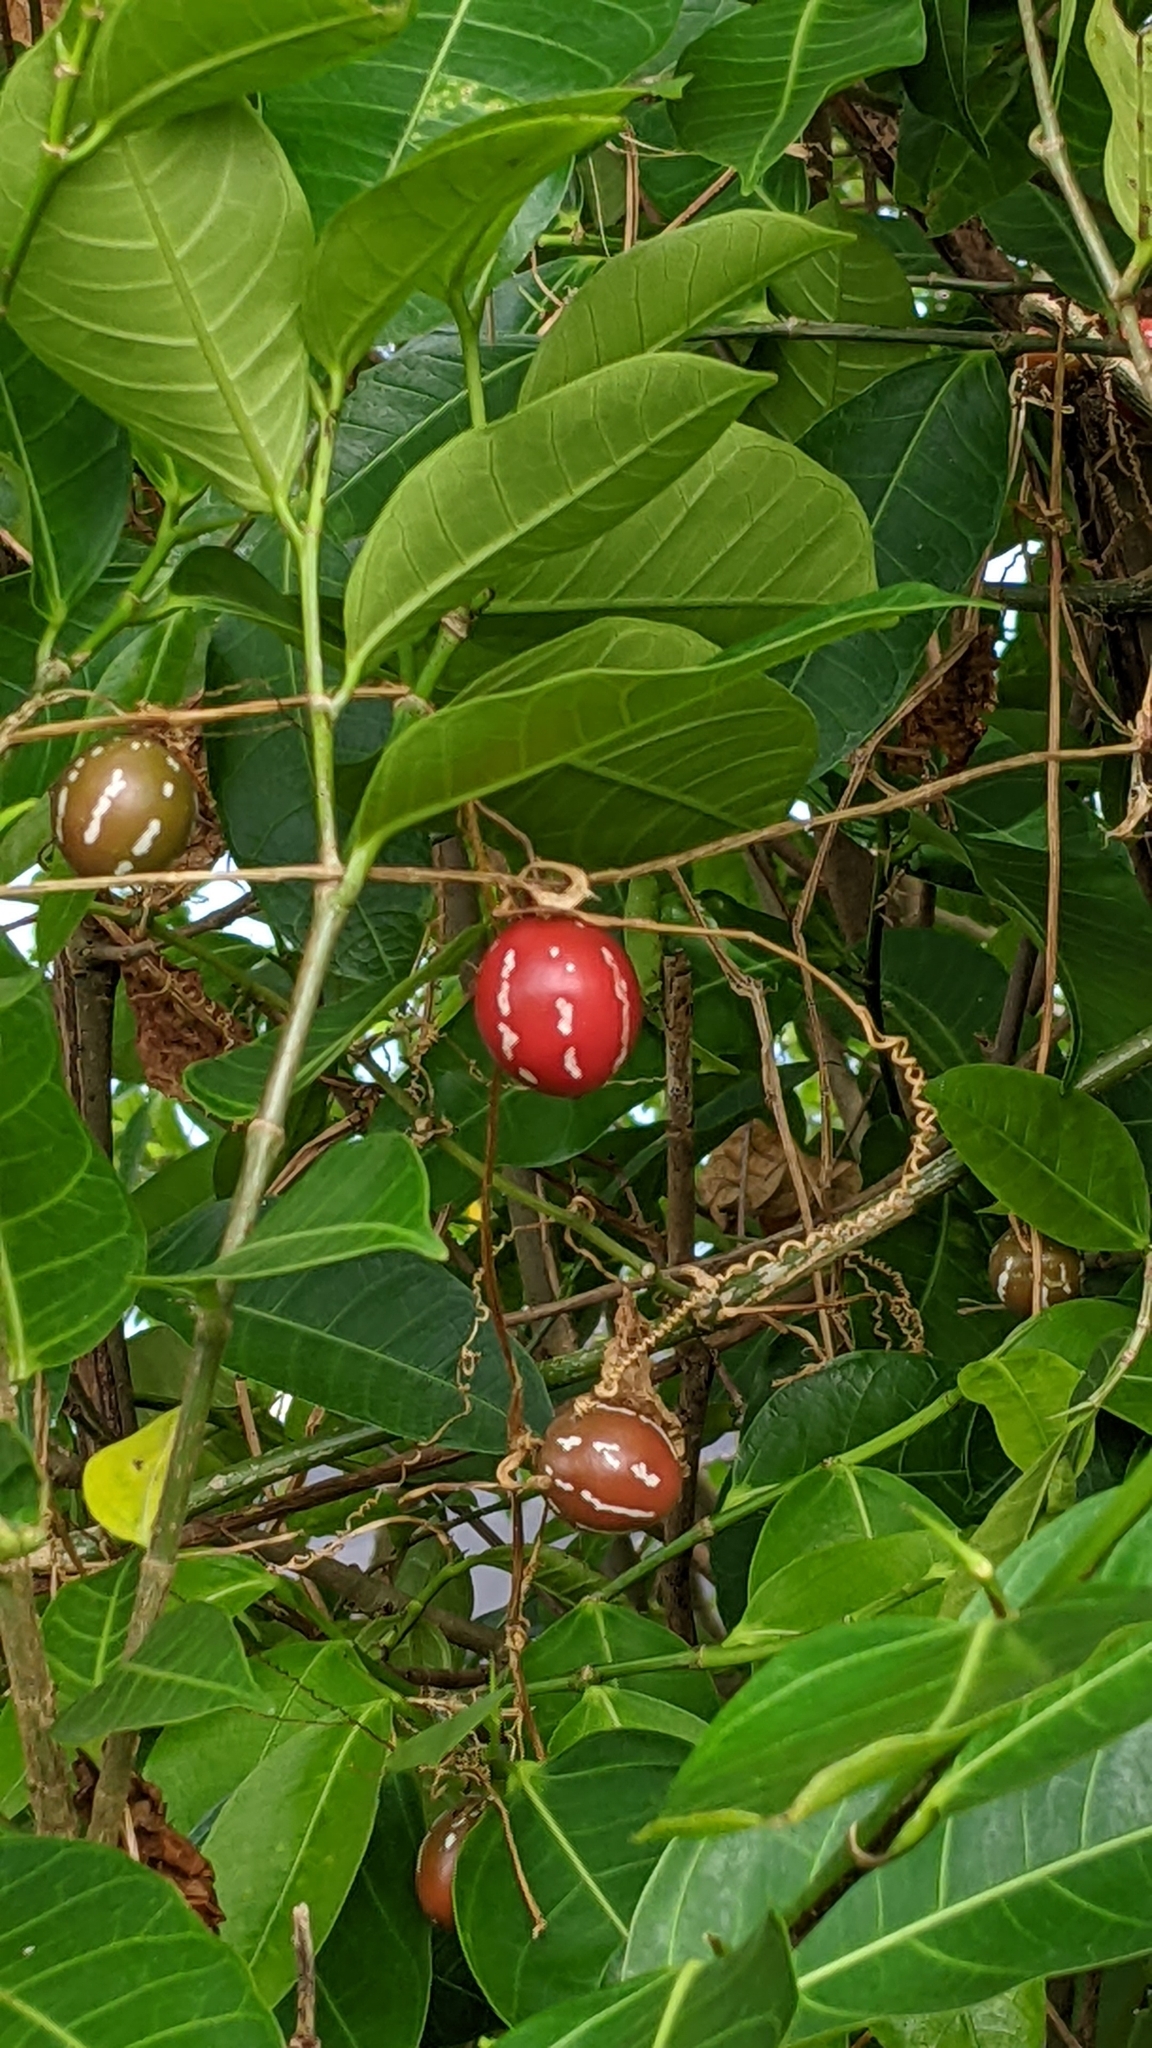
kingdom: Plantae
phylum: Tracheophyta
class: Magnoliopsida
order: Cucurbitales
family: Cucurbitaceae
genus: Diplocyclos
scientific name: Diplocyclos palmatus
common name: Striped-cucumber
